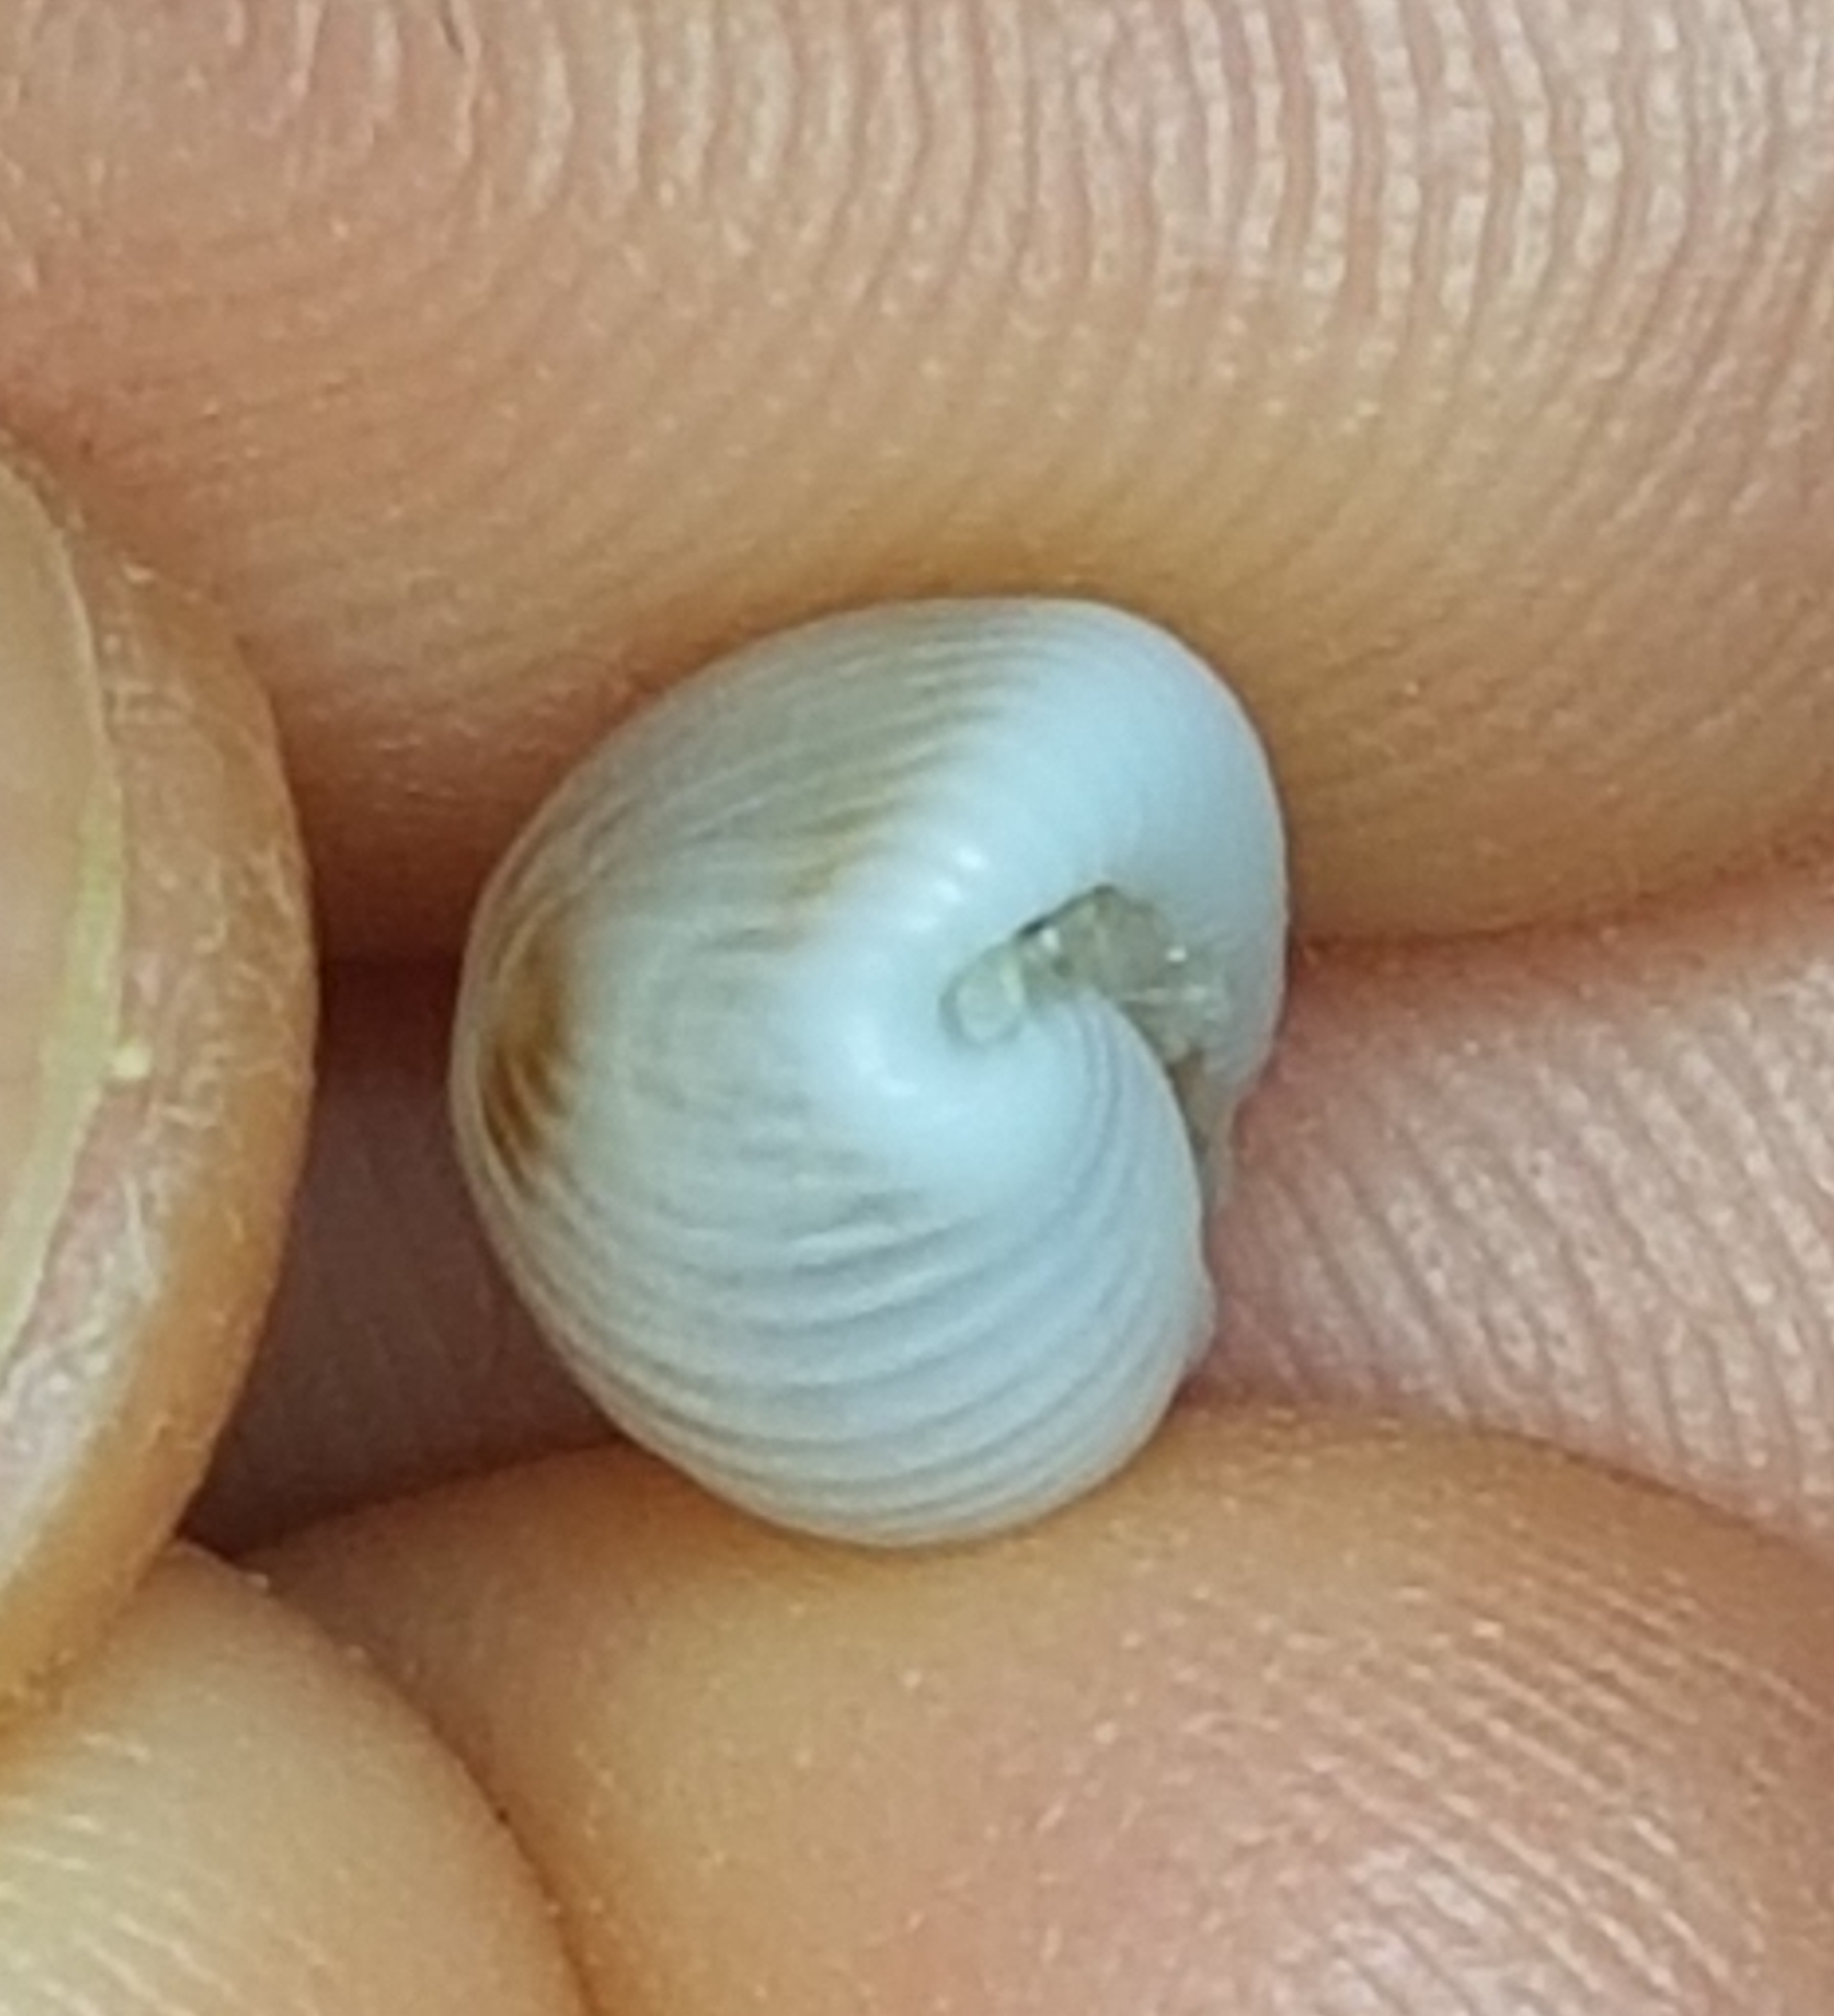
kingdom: Animalia
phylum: Mollusca
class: Gastropoda
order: Littorinimorpha
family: Triviidae
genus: Trivia
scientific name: Trivia monacha
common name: Spotted cowrie
